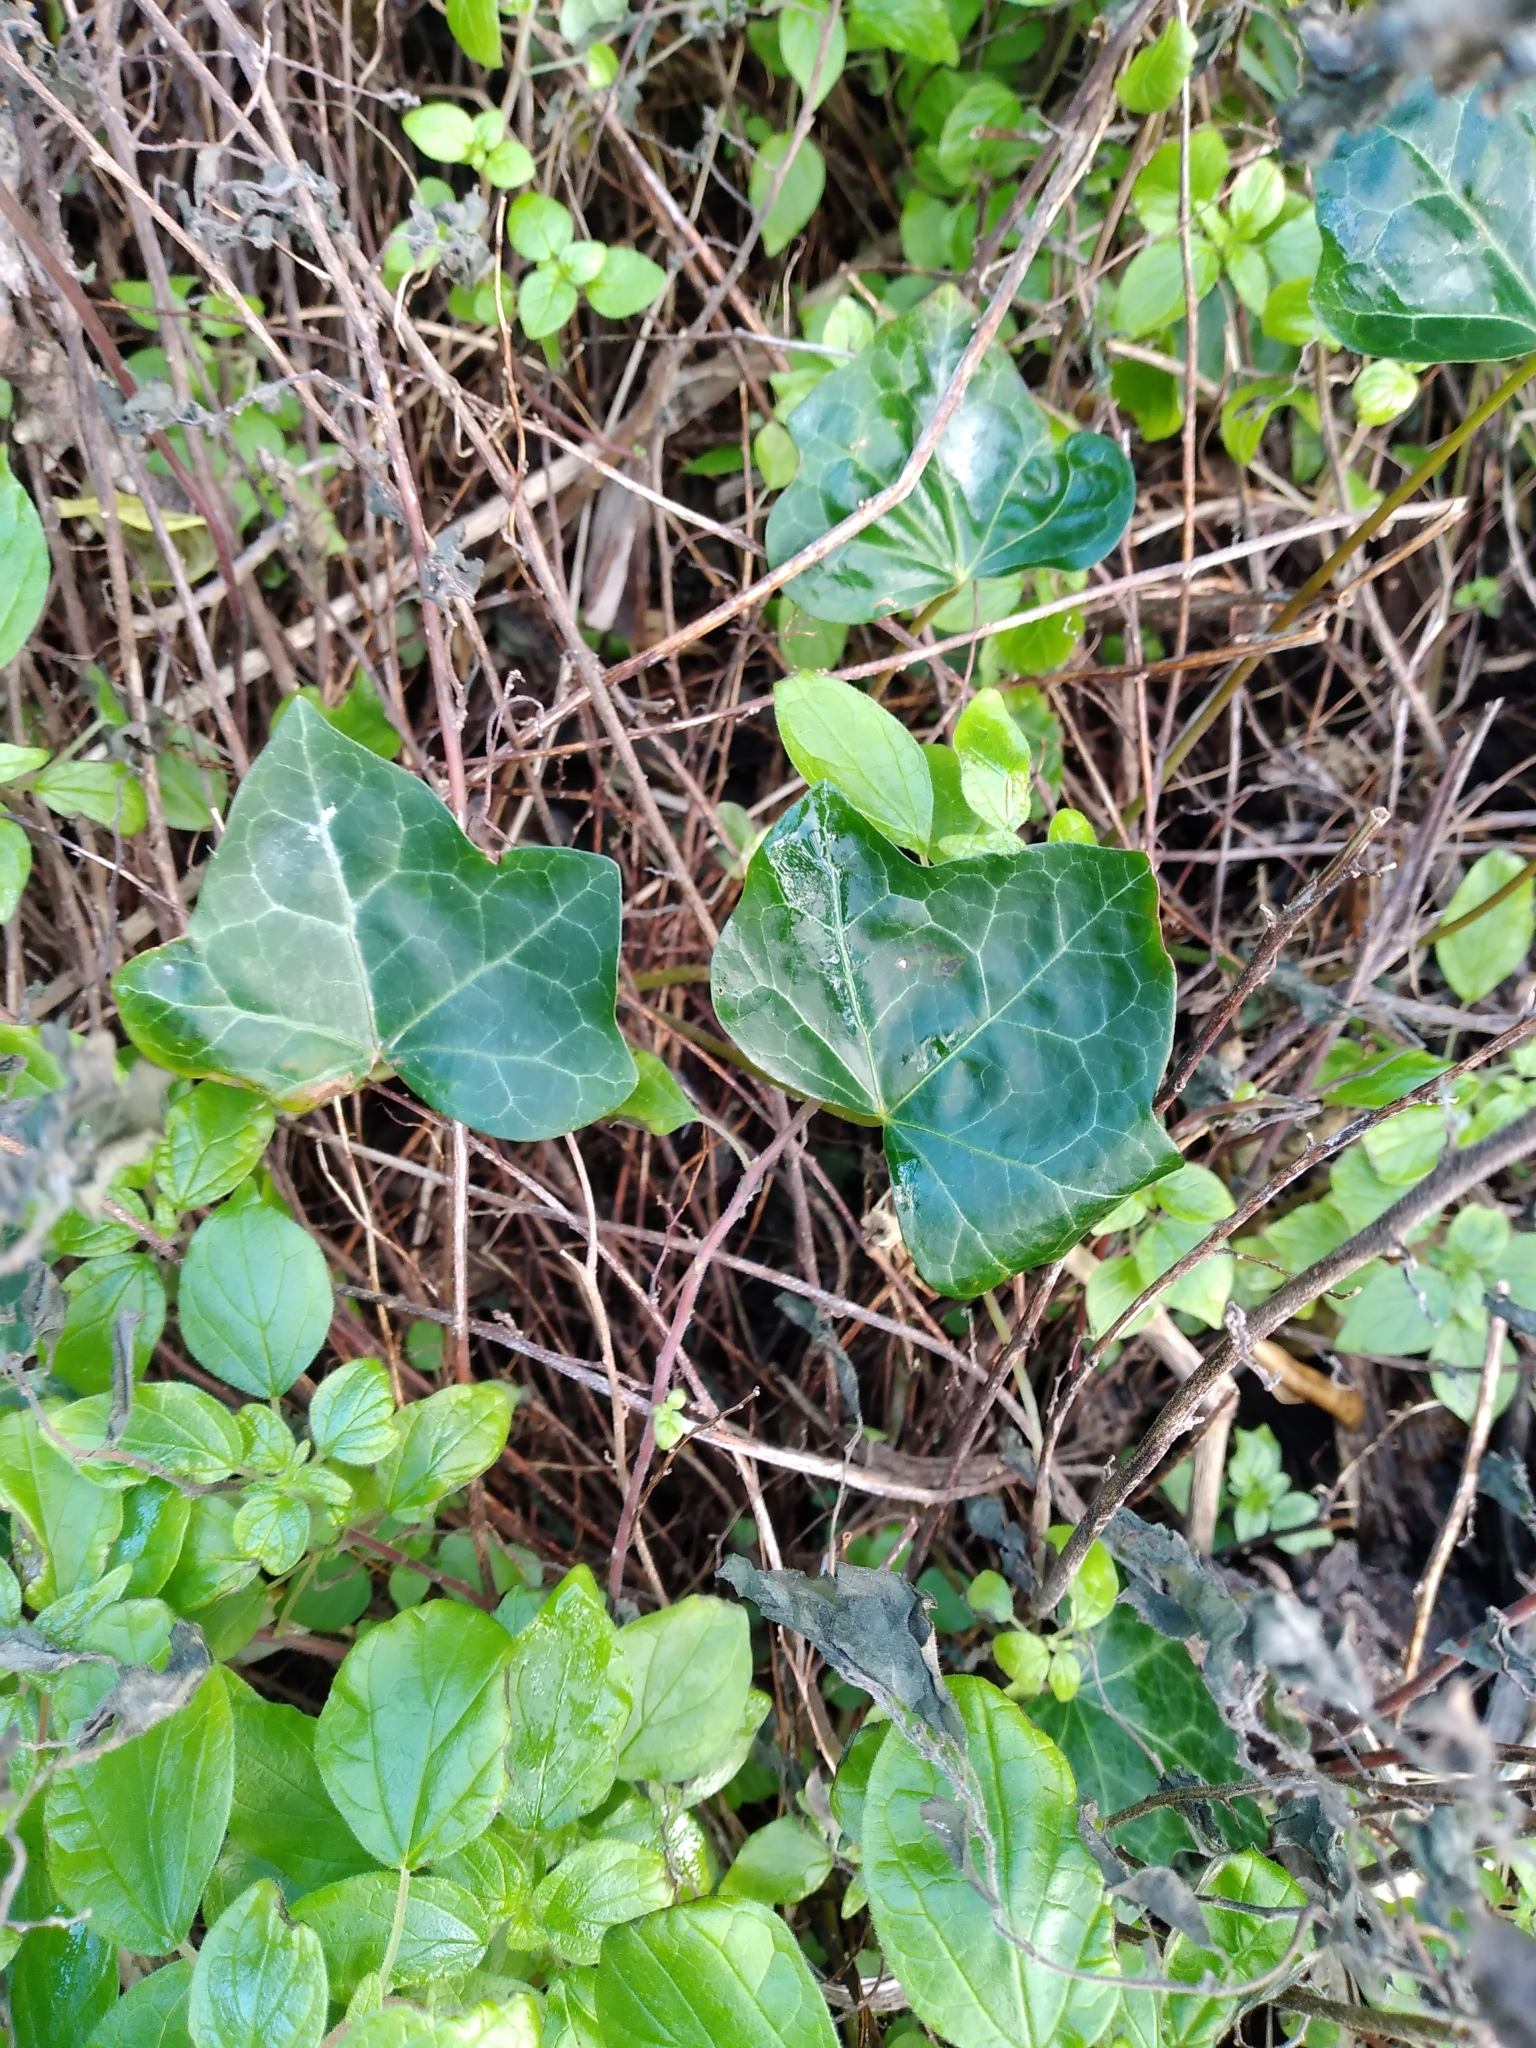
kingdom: Plantae
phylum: Tracheophyta
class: Magnoliopsida
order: Apiales
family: Araliaceae
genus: Hedera
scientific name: Hedera helix
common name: Ivy
